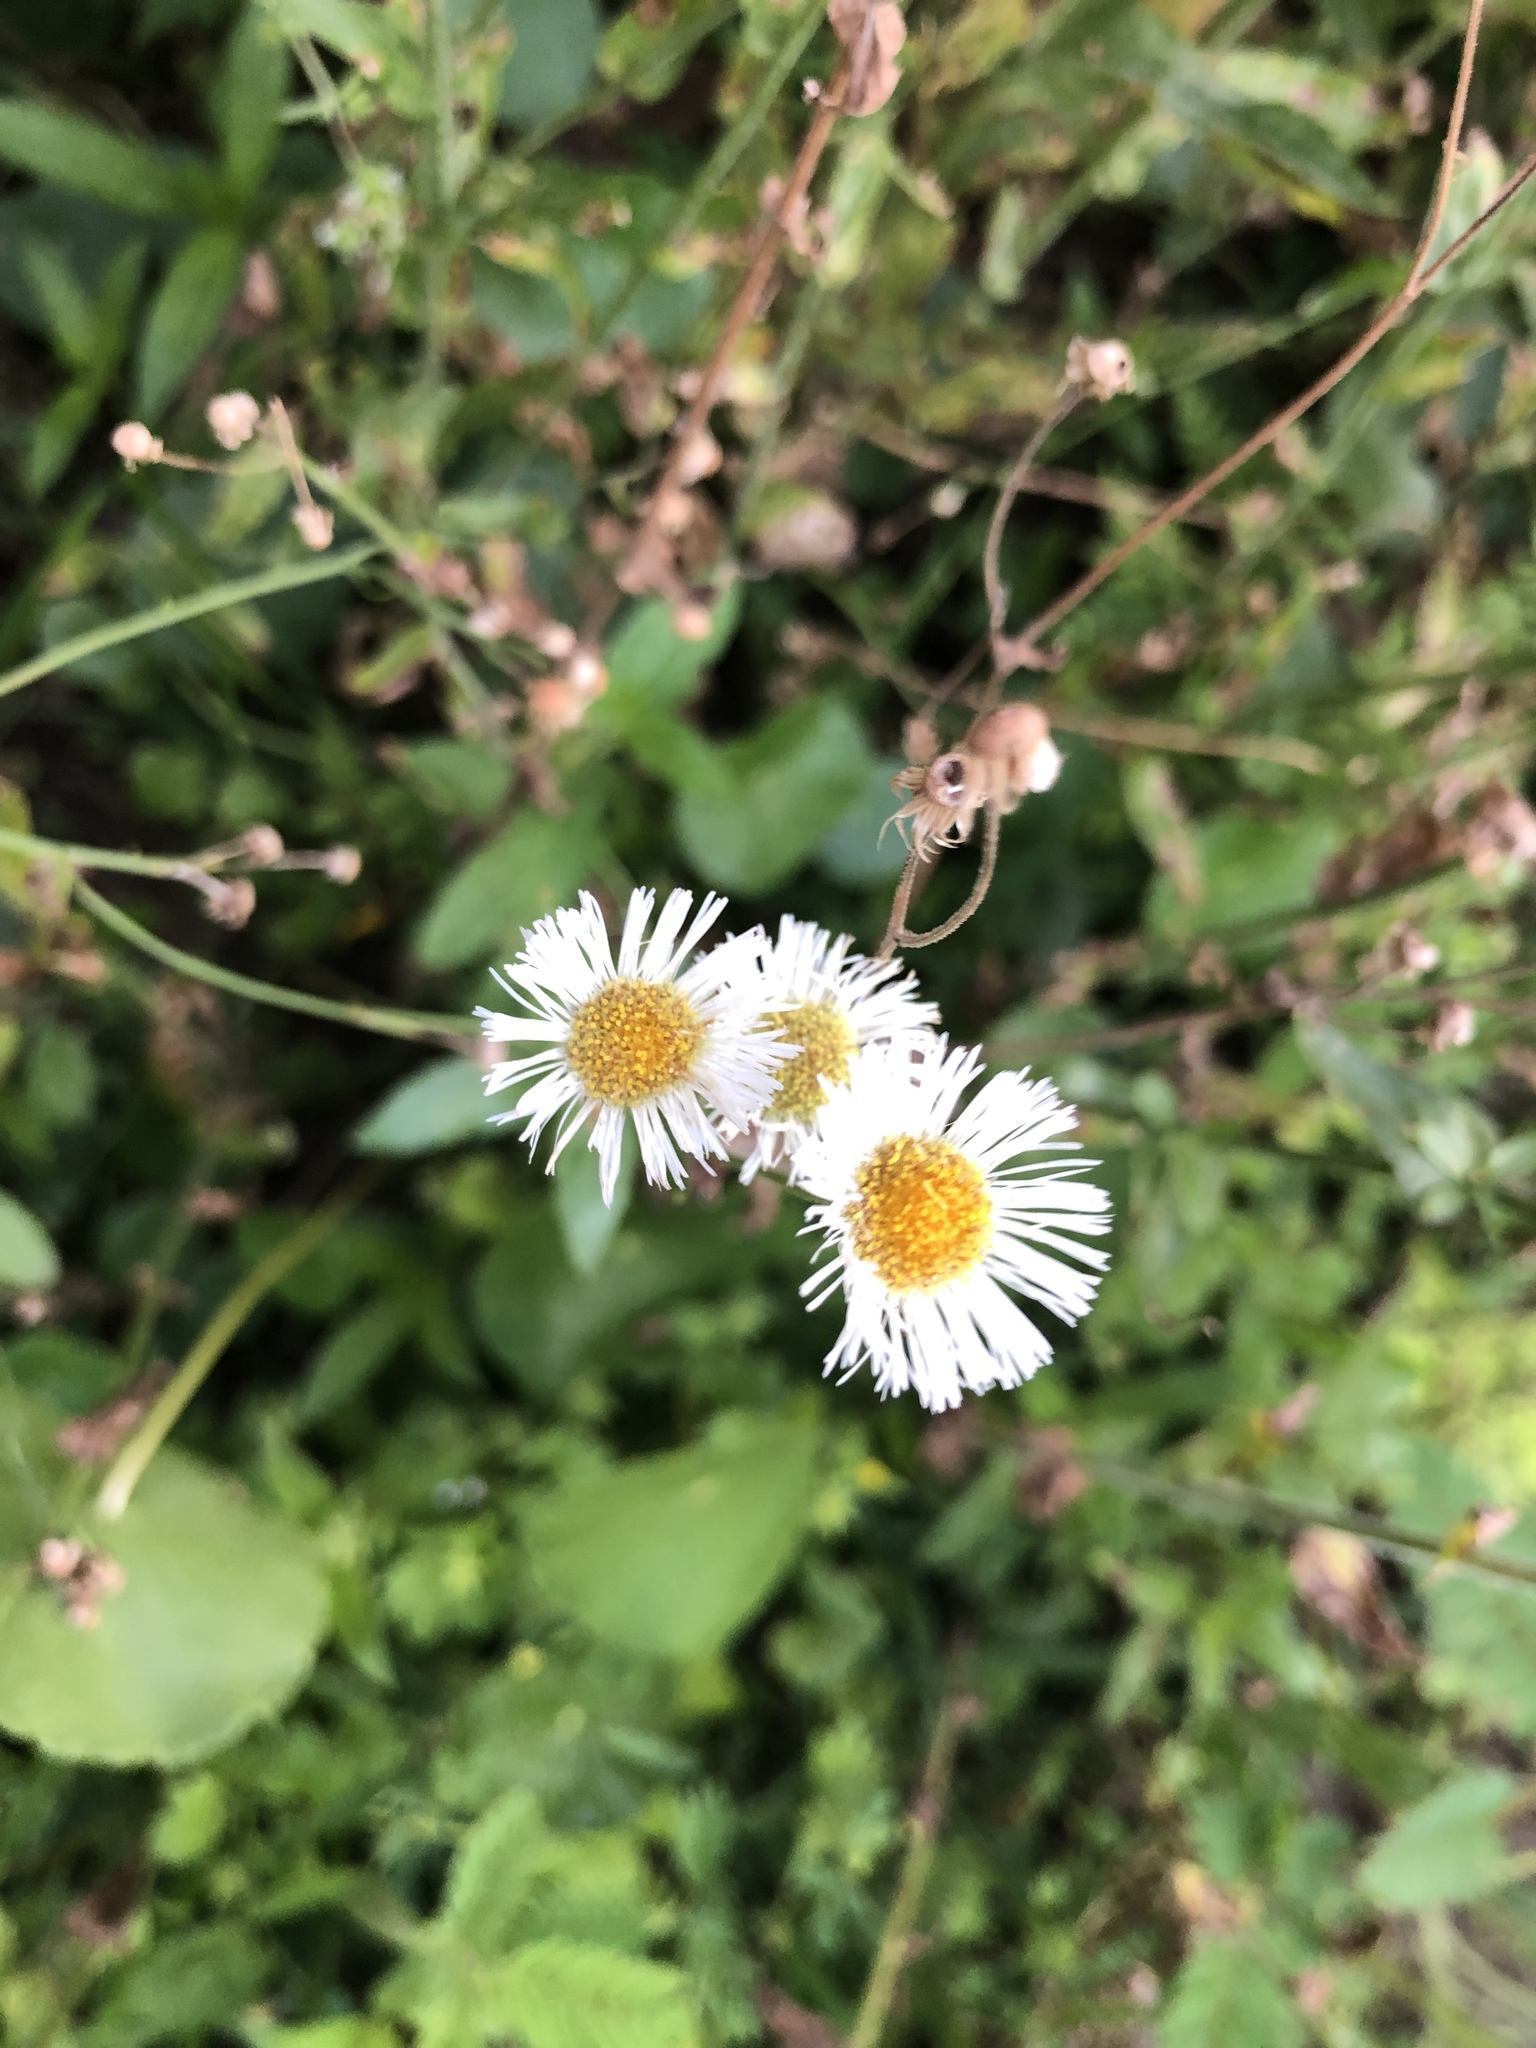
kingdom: Plantae
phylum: Tracheophyta
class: Magnoliopsida
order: Asterales
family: Asteraceae
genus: Erigeron
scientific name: Erigeron philadelphicus
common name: Robin's-plantain
